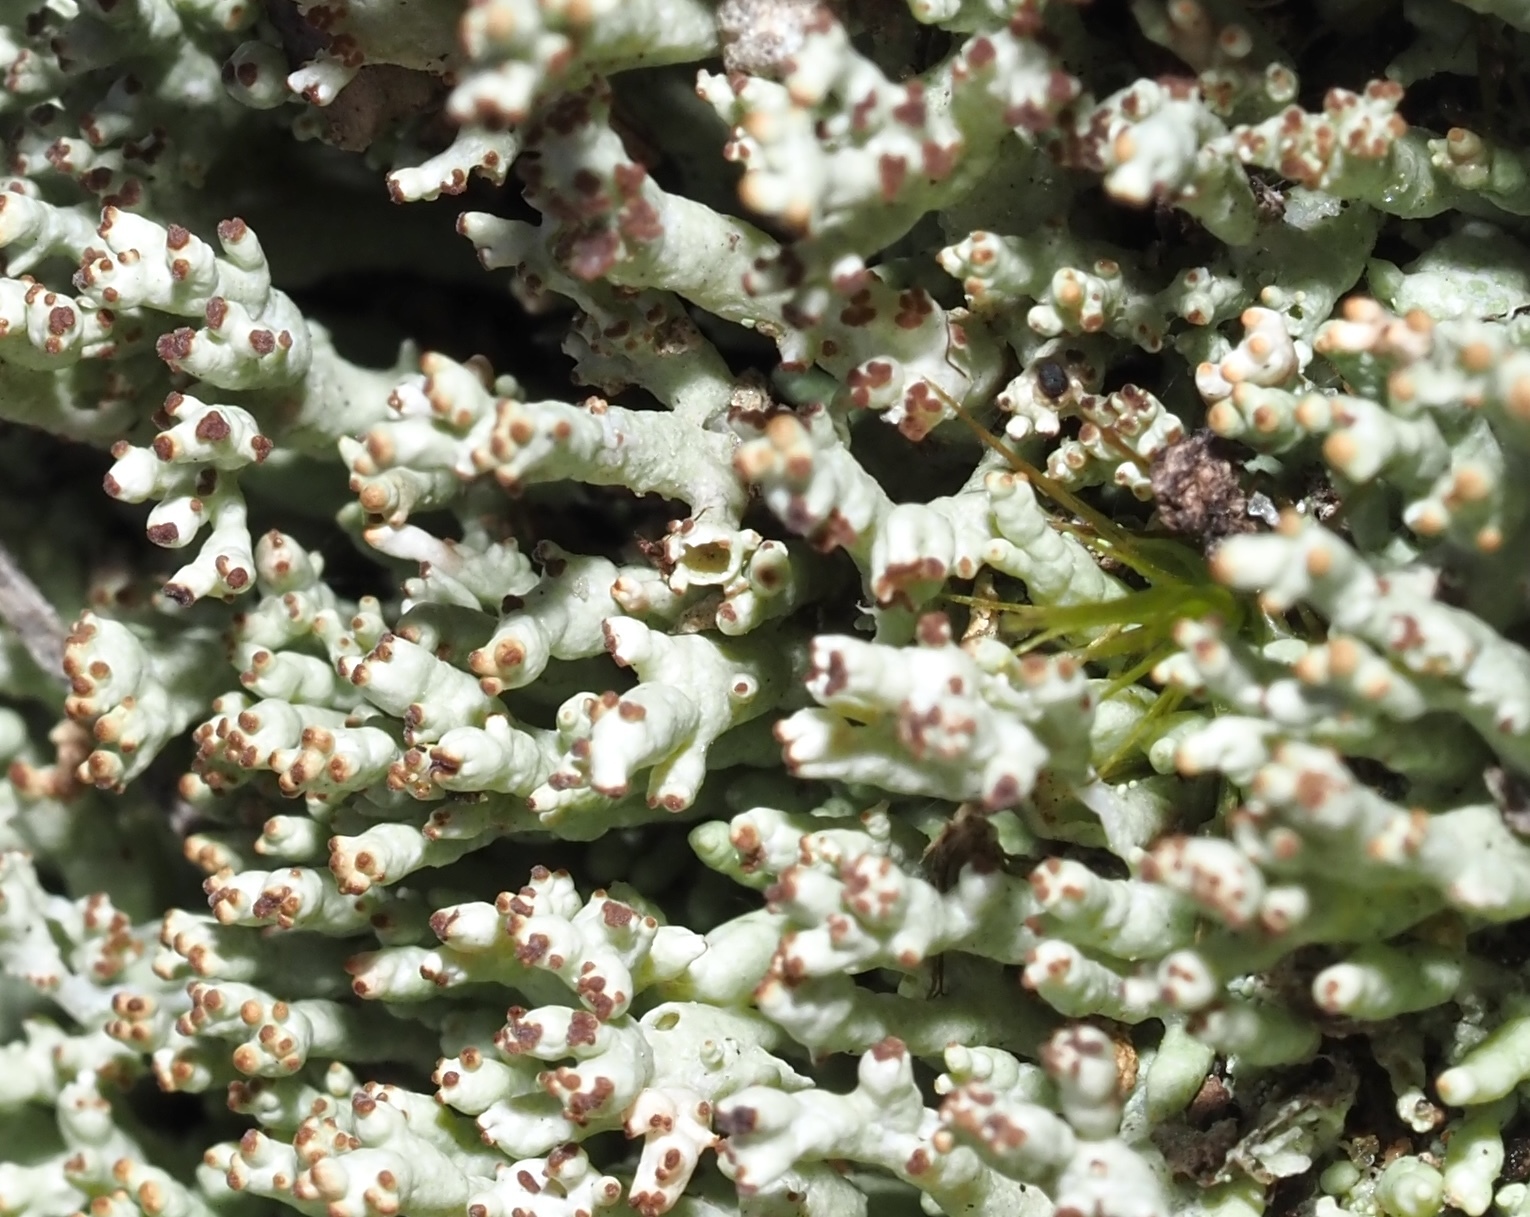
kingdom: Fungi
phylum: Ascomycota
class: Lecanoromycetes
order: Lecanorales
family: Cladoniaceae
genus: Pycnothelia
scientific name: Pycnothelia papillaria
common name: Nipple lichen
